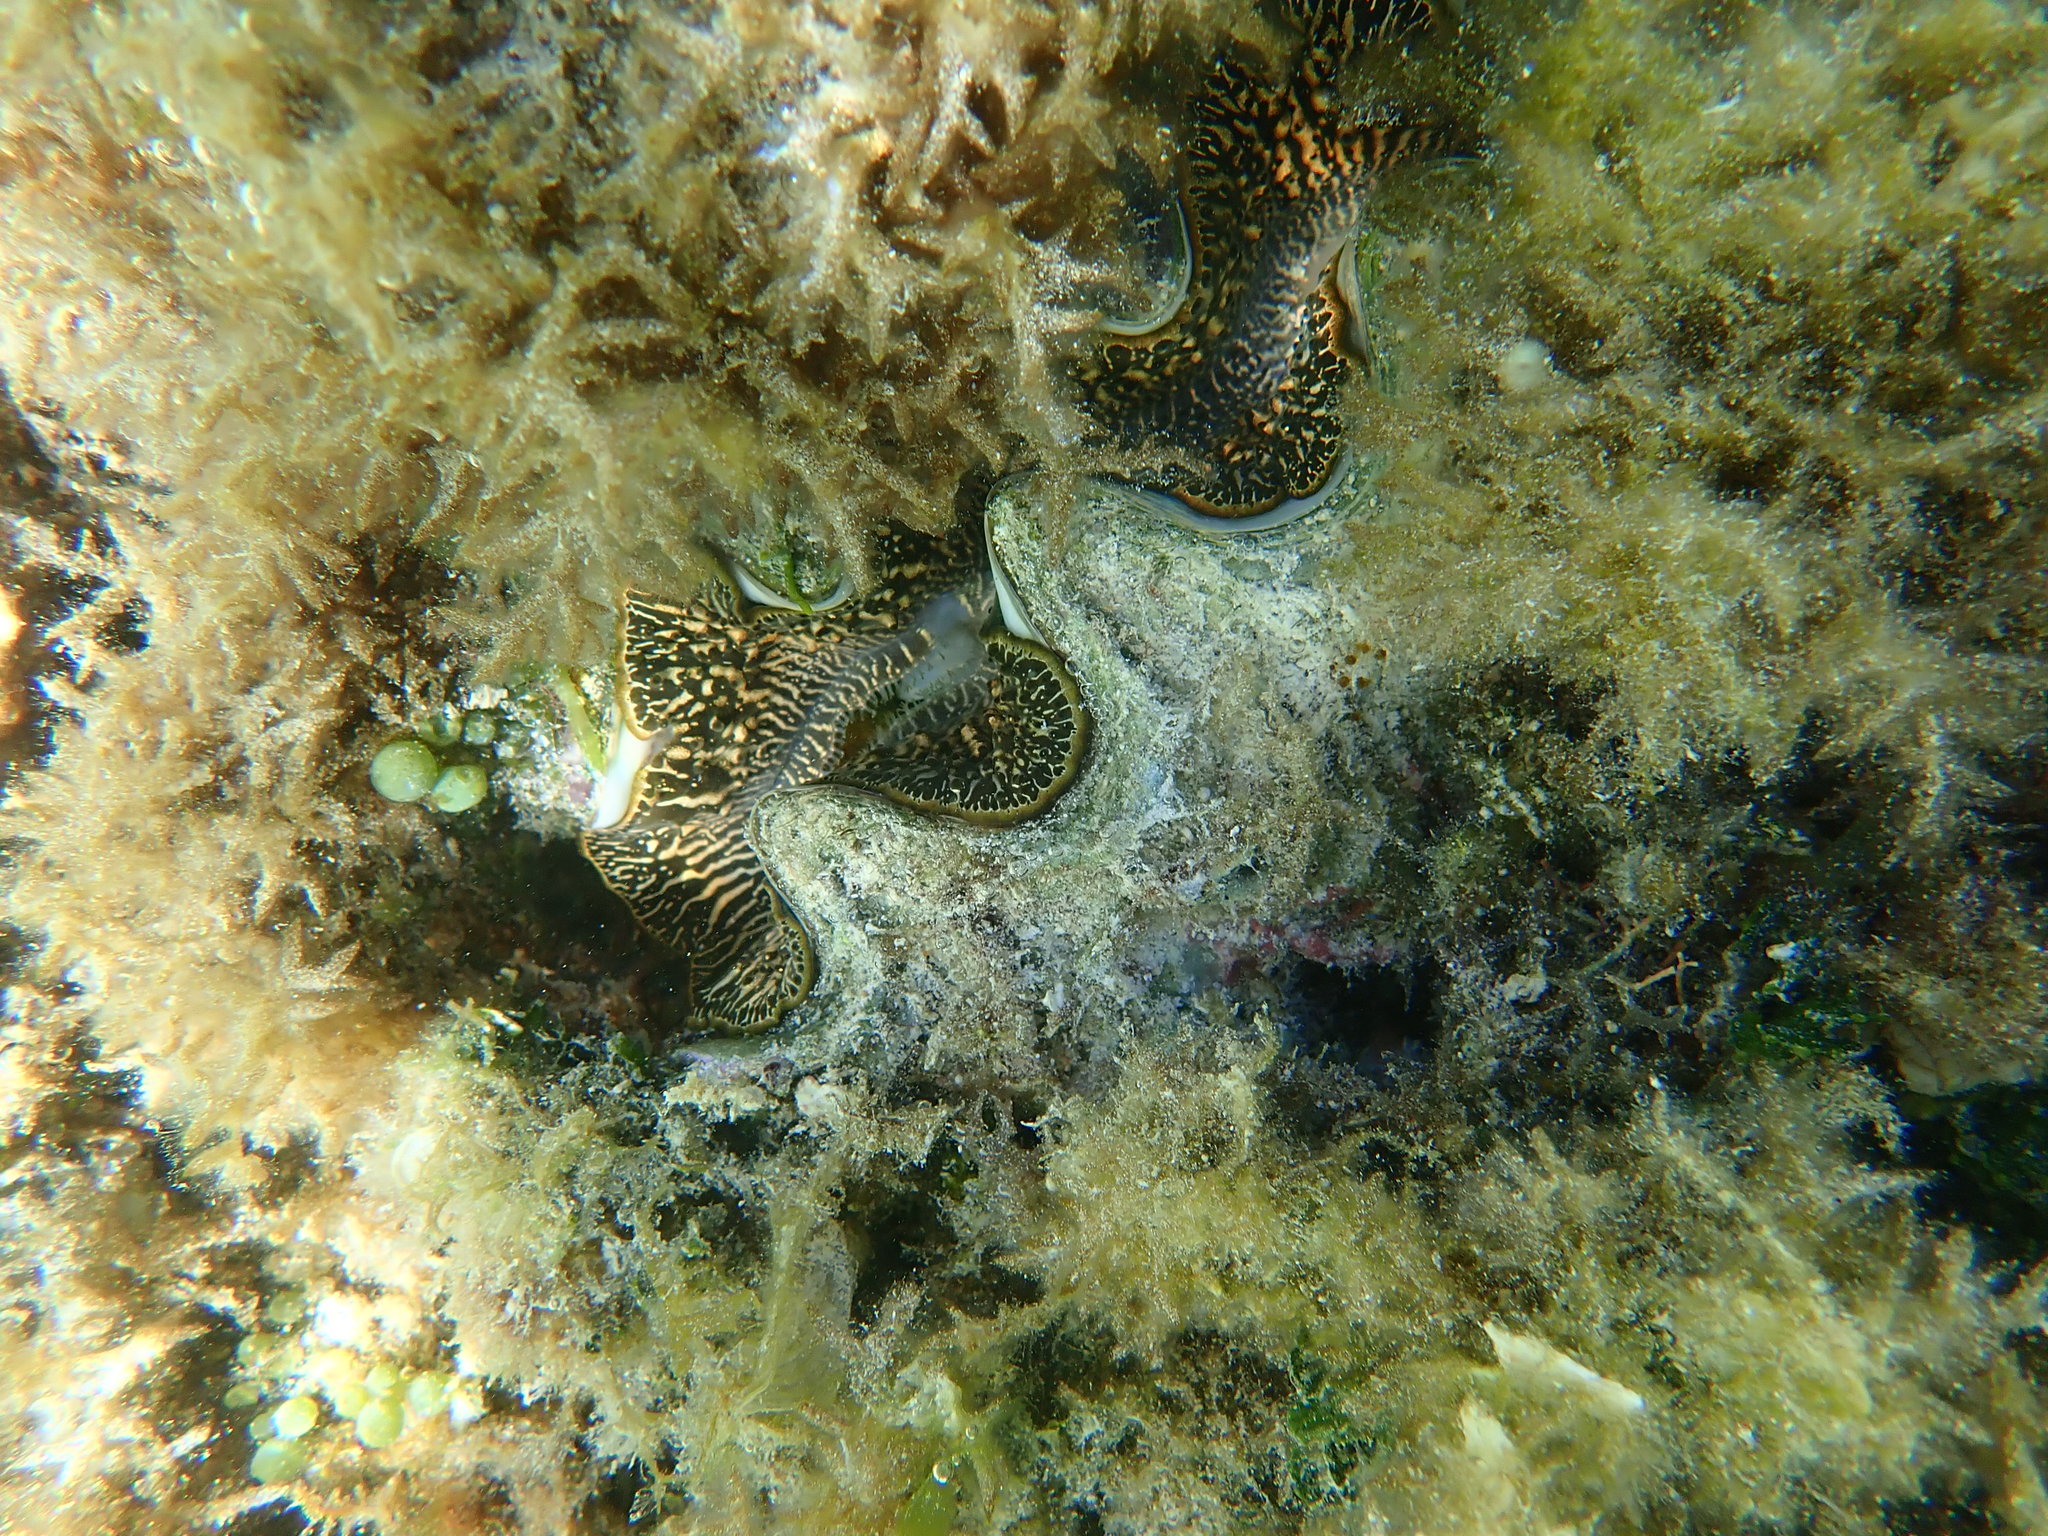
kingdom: Animalia
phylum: Mollusca
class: Bivalvia
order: Cardiida
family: Cardiidae
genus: Tridacna
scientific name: Tridacna maxima
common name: Small giant clam
